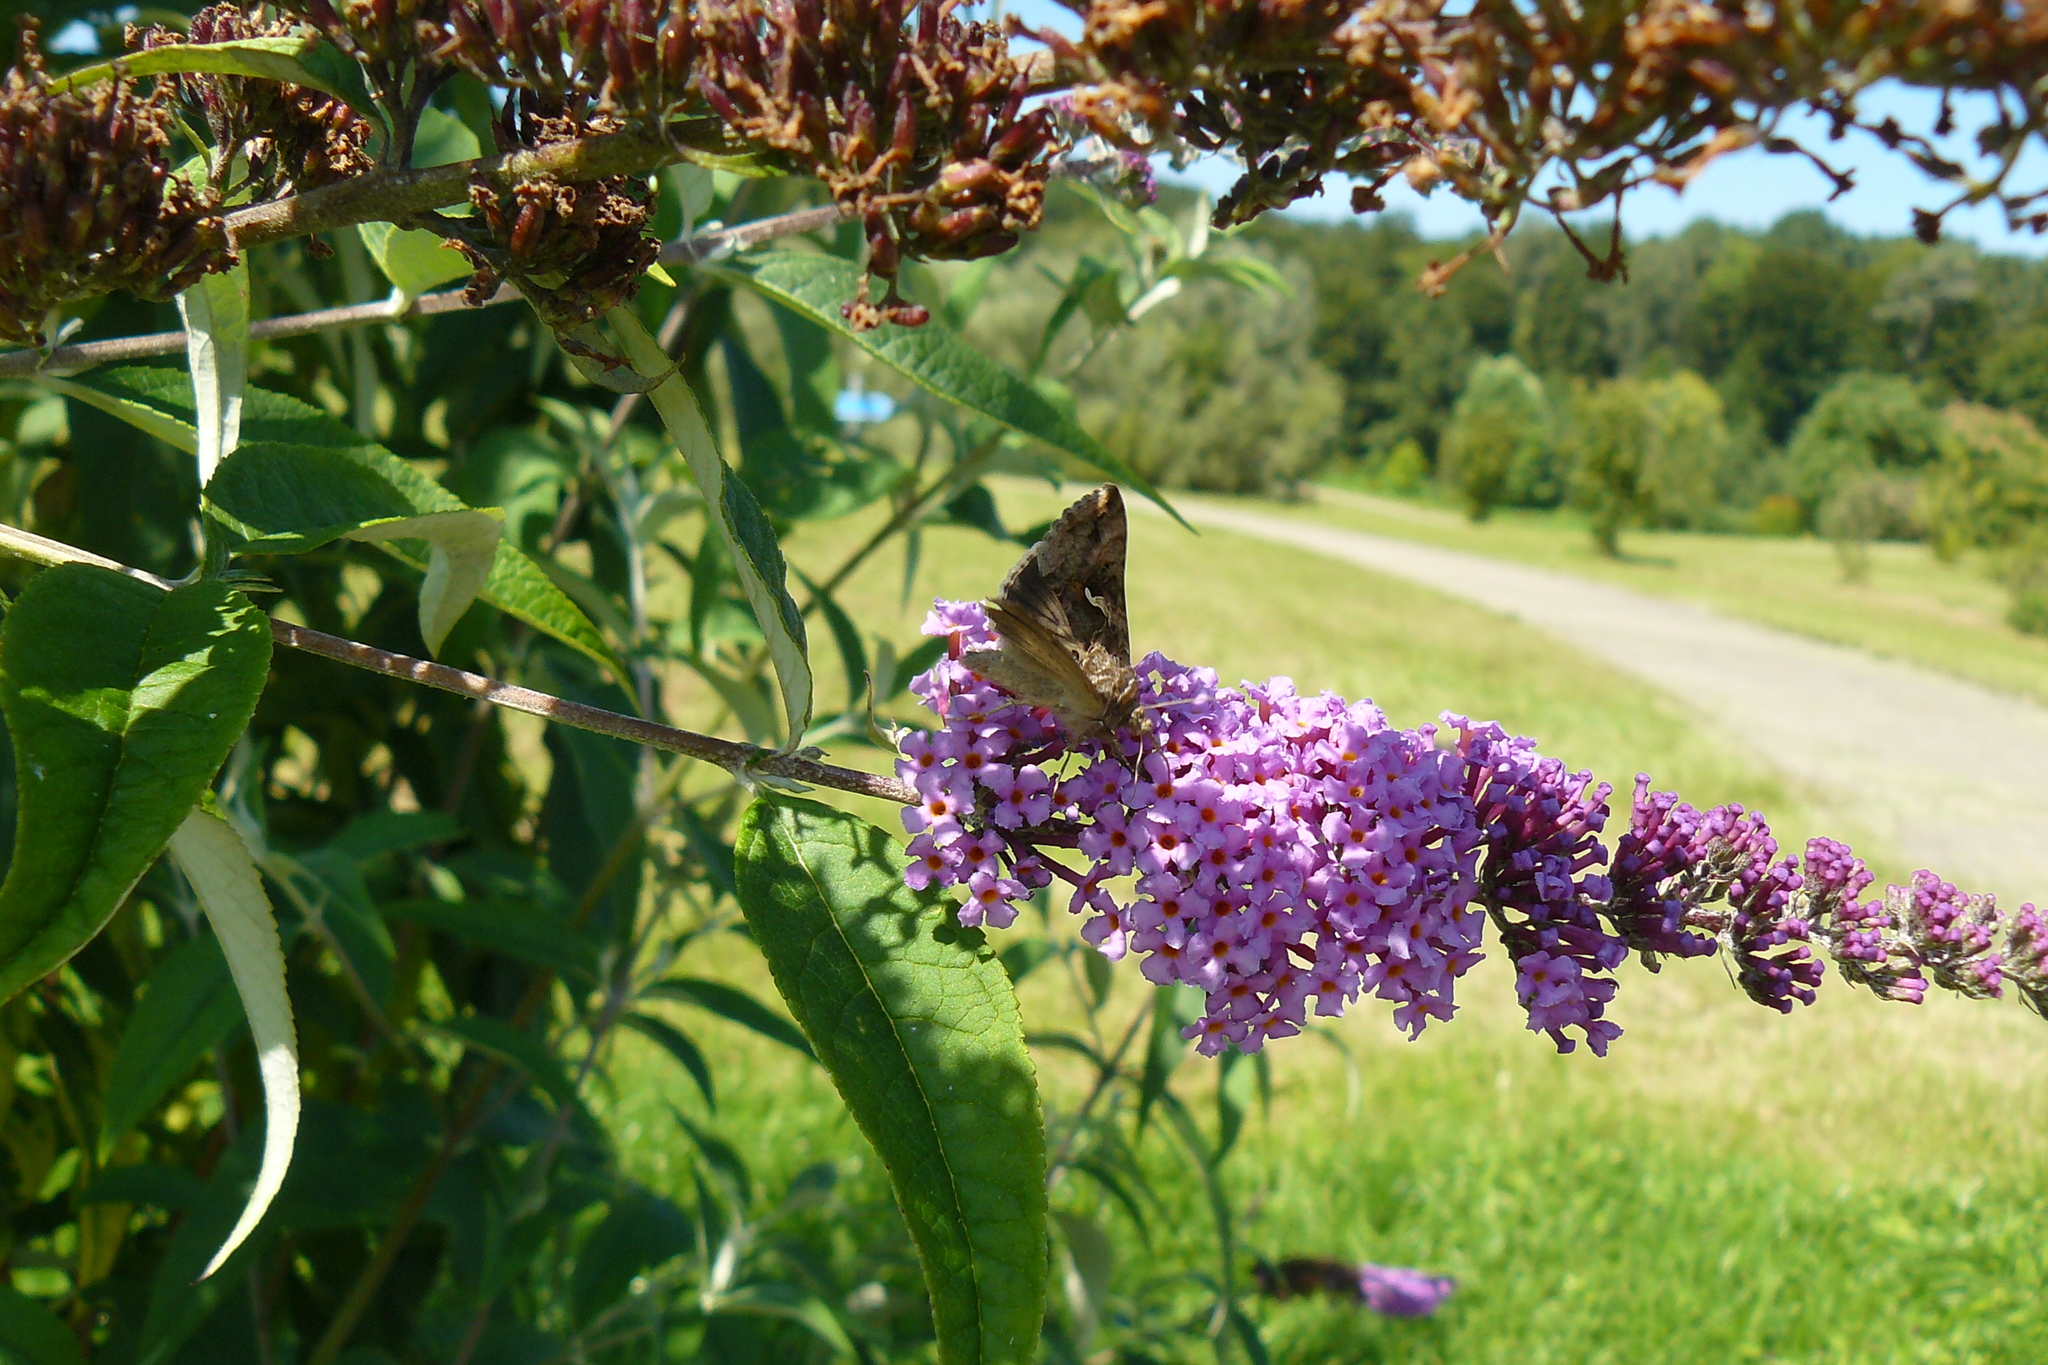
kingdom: Animalia
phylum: Arthropoda
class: Insecta
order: Lepidoptera
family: Noctuidae
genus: Autographa
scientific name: Autographa gamma
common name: Silver y
